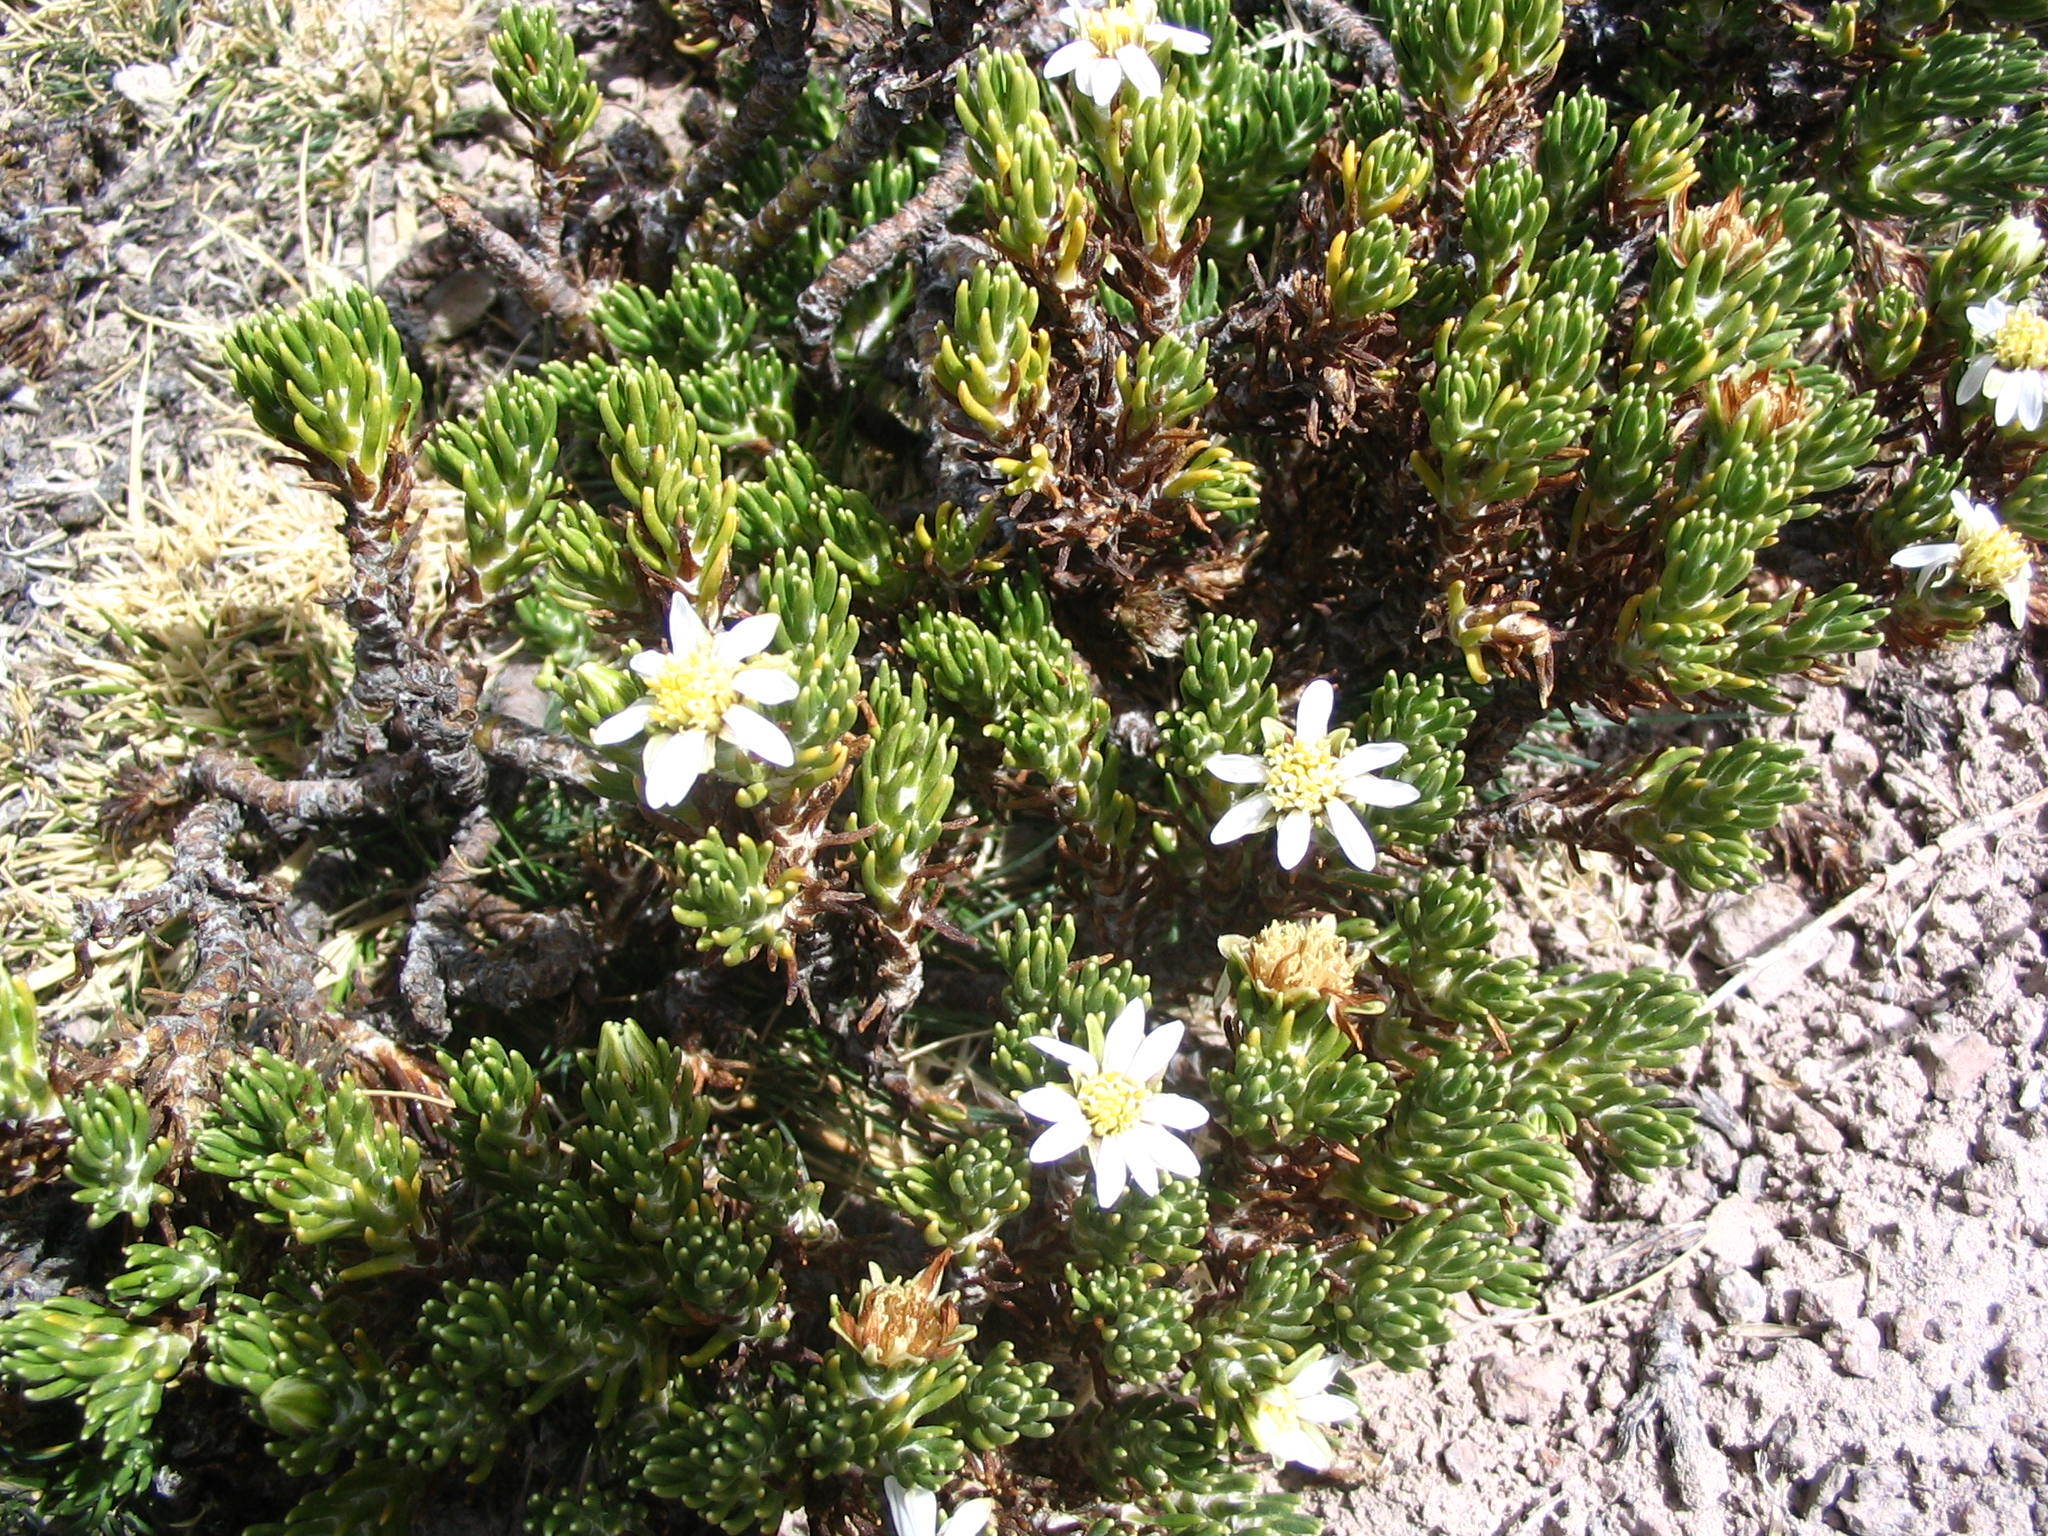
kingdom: Plantae
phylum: Tracheophyta
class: Magnoliopsida
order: Asterales
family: Asteraceae
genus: Werneria
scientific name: Werneria poposa
